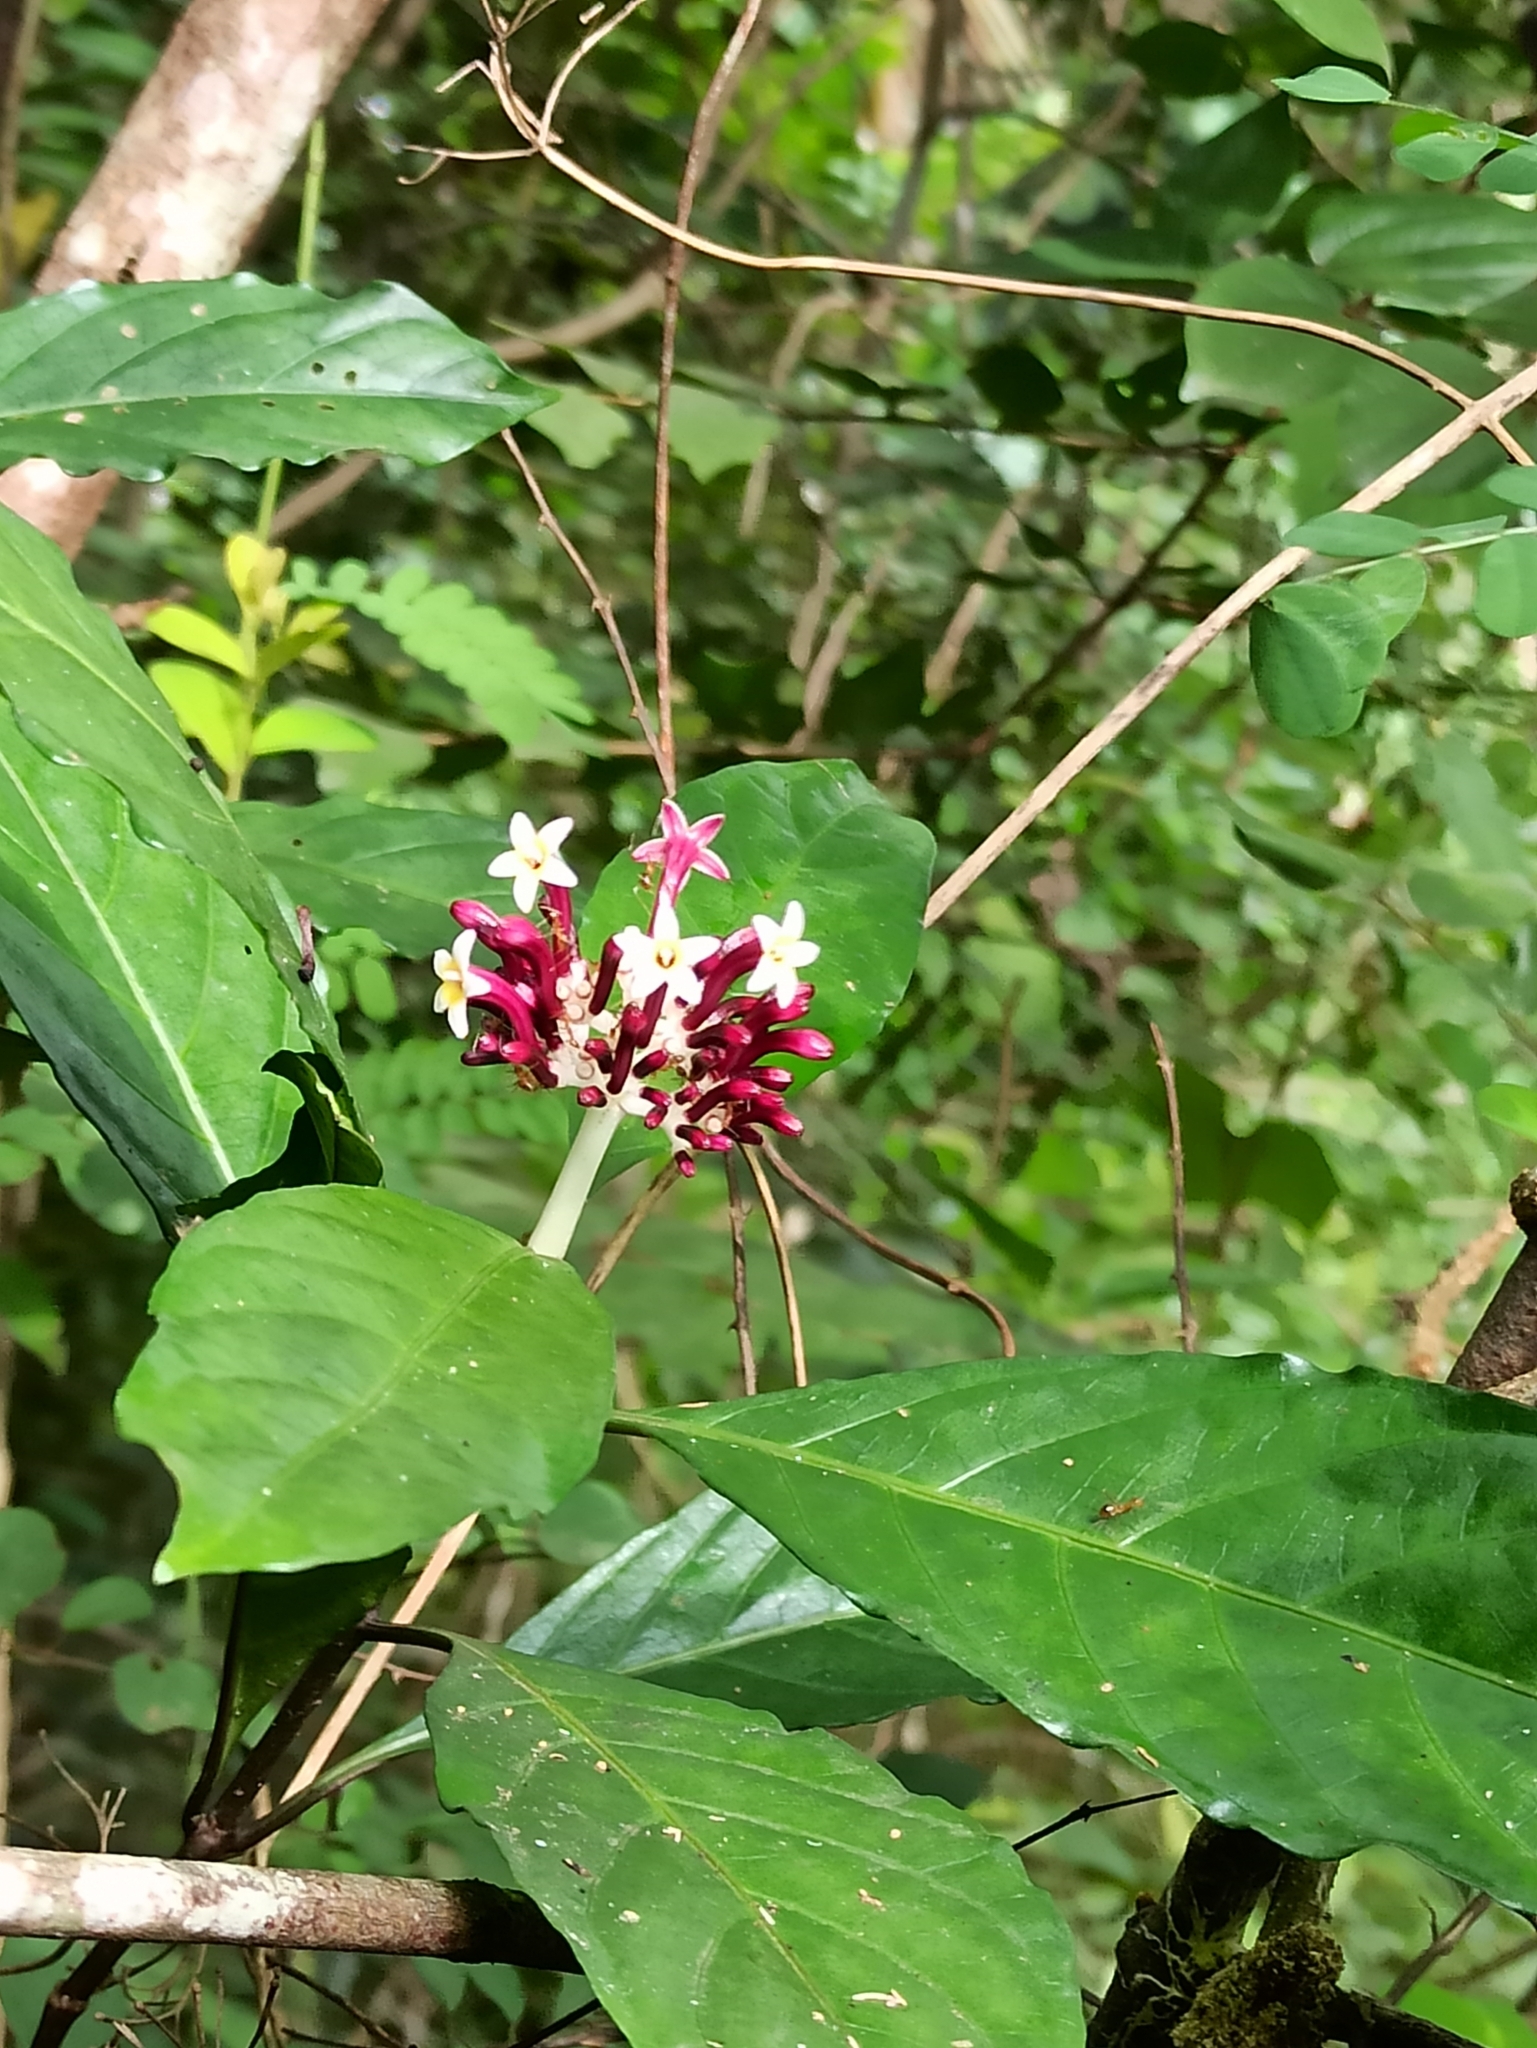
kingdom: Plantae
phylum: Tracheophyta
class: Magnoliopsida
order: Gentianales
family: Rubiaceae
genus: Chassalia
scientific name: Chassalia curviflora
